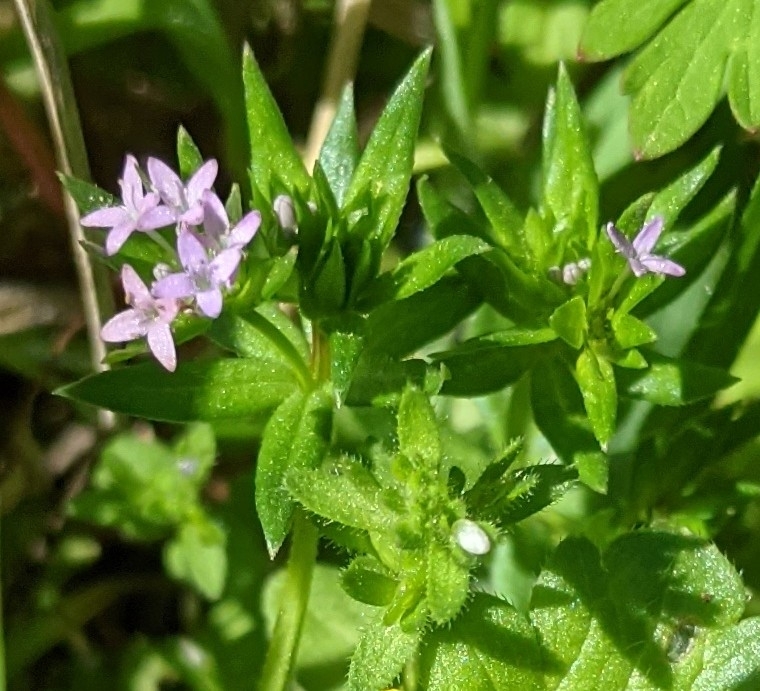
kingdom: Plantae
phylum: Tracheophyta
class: Magnoliopsida
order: Gentianales
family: Rubiaceae
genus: Sherardia
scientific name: Sherardia arvensis
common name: Field madder
